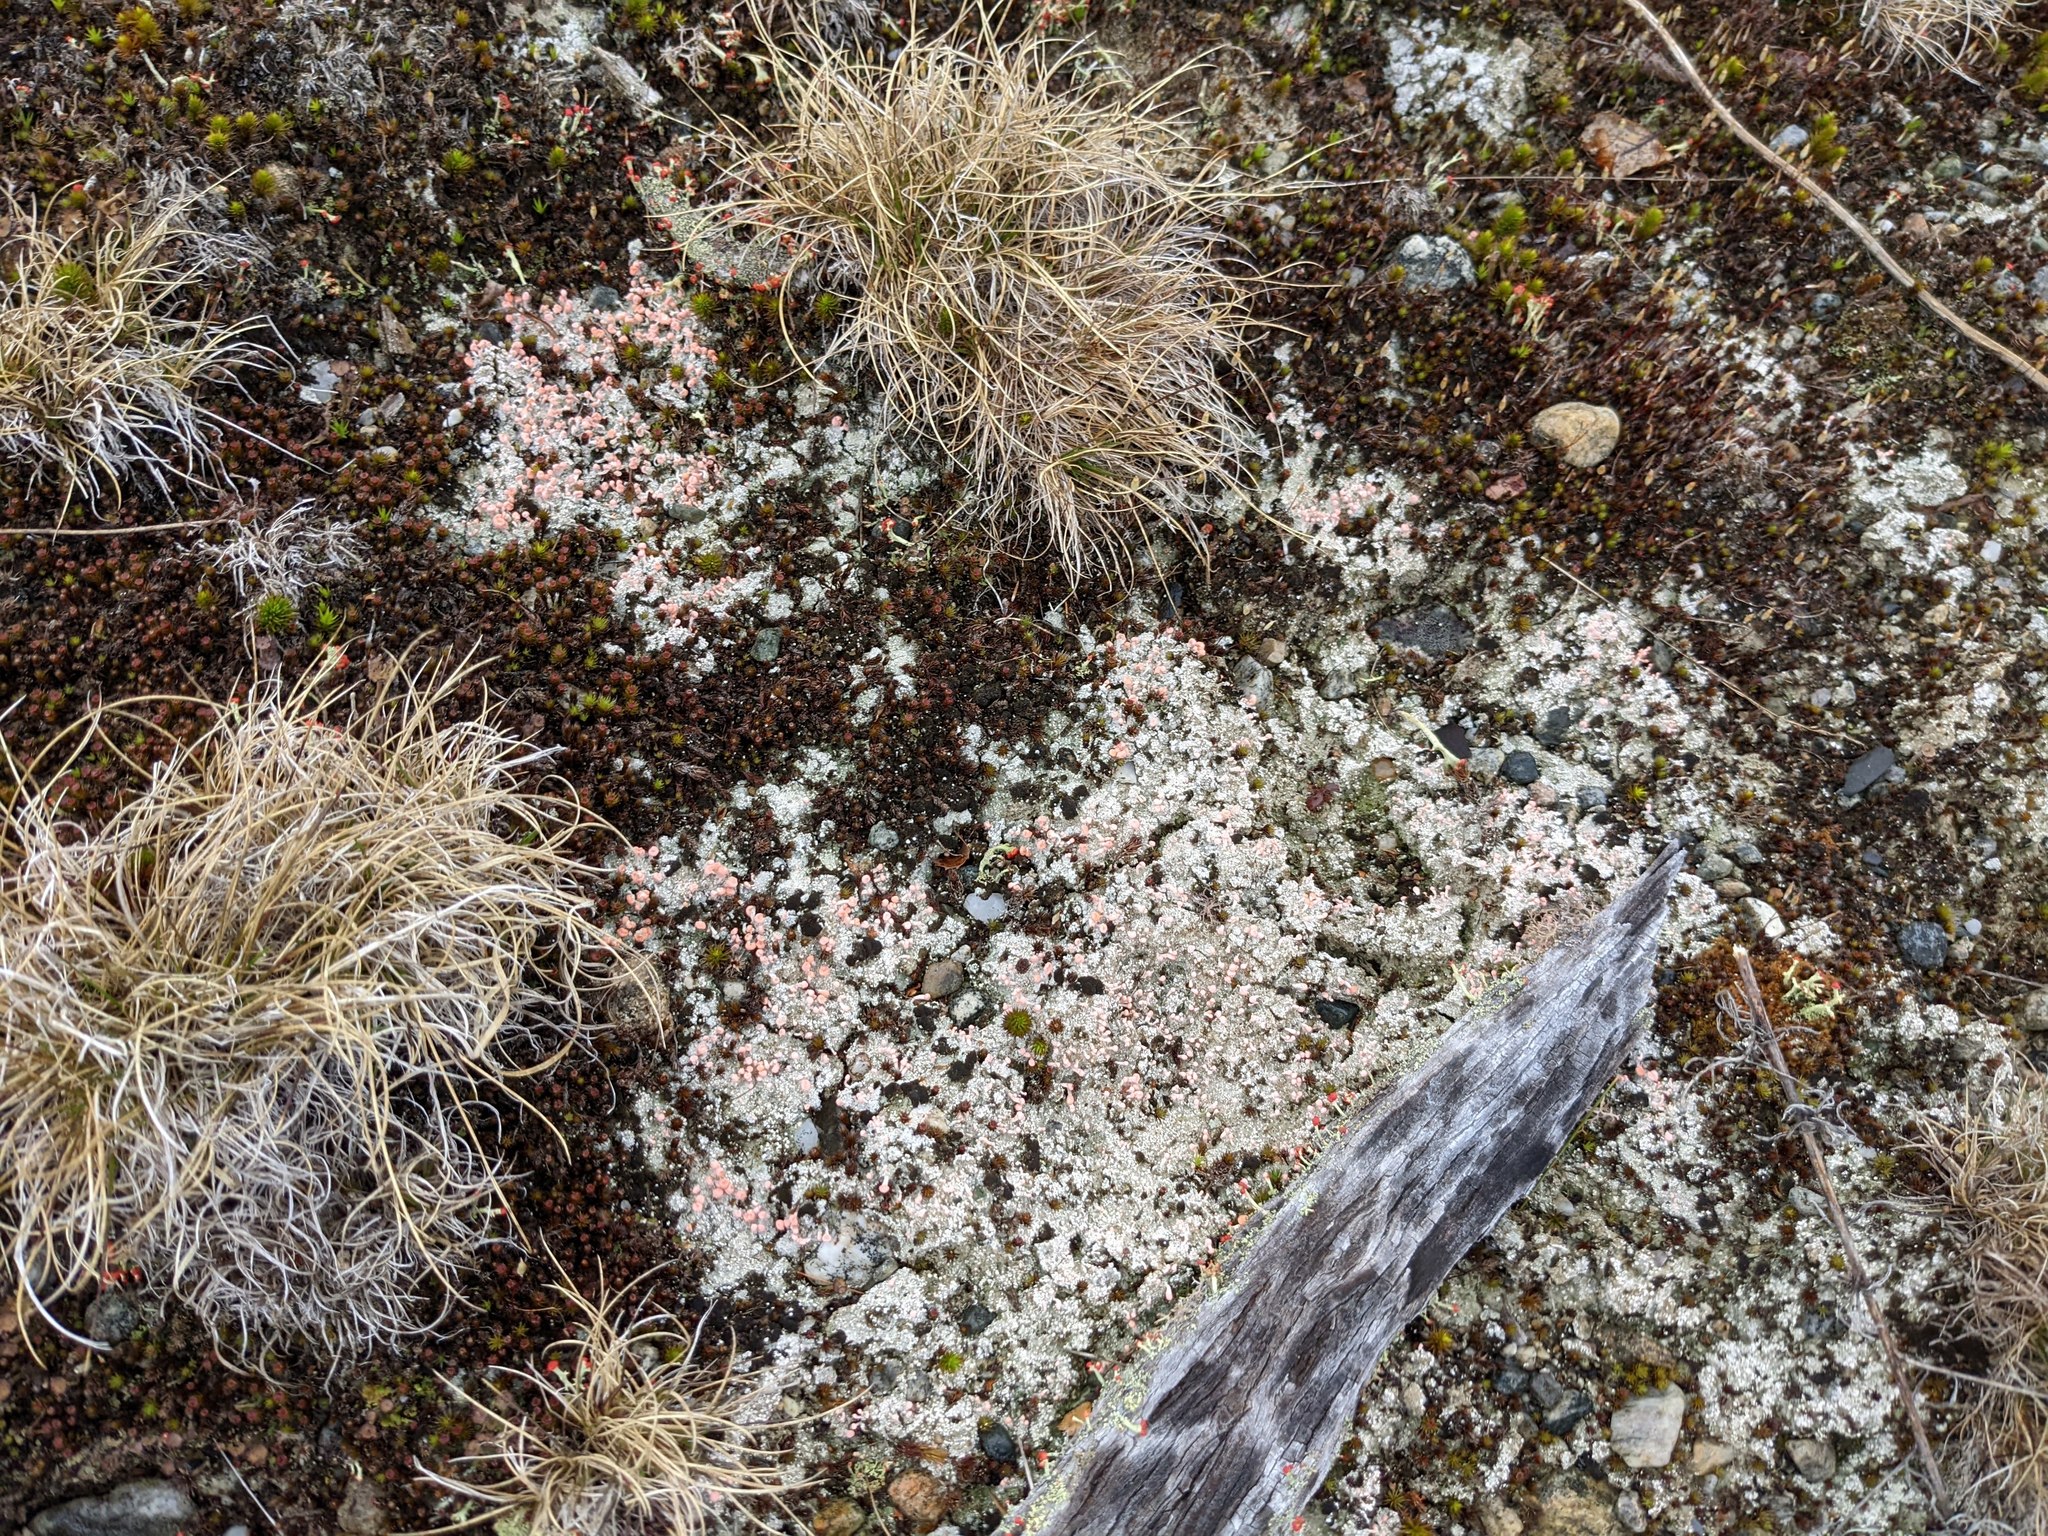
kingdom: Fungi
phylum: Ascomycota
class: Lecanoromycetes
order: Pertusariales
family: Icmadophilaceae
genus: Dibaeis
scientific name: Dibaeis baeomyces
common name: Pink earth lichen
